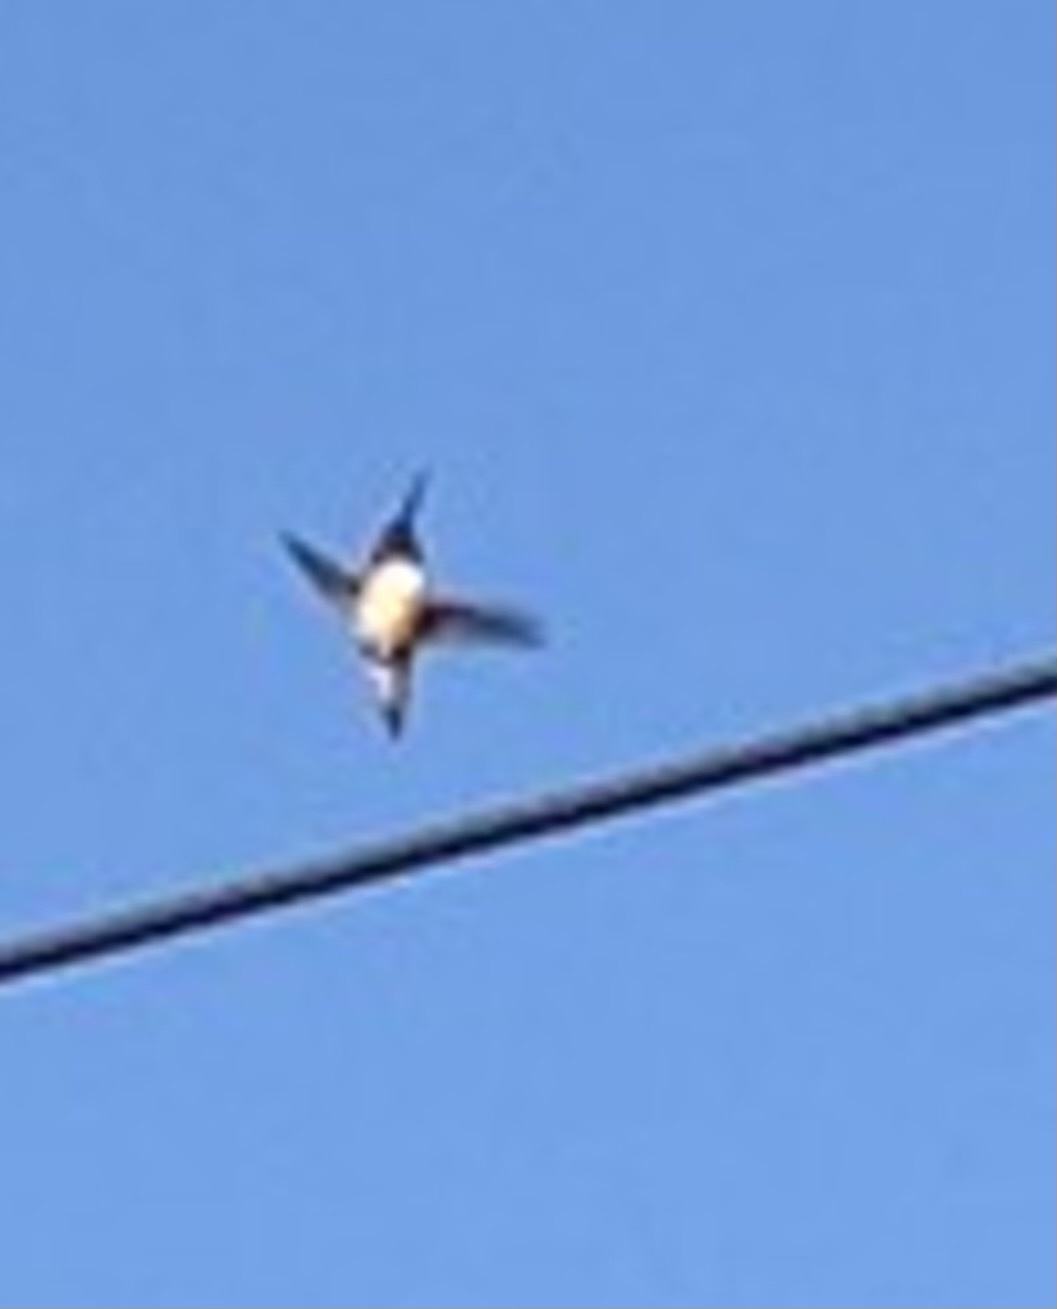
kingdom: Animalia
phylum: Chordata
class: Aves
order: Apodiformes
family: Trochilidae
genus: Selasphorus
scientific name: Selasphorus
